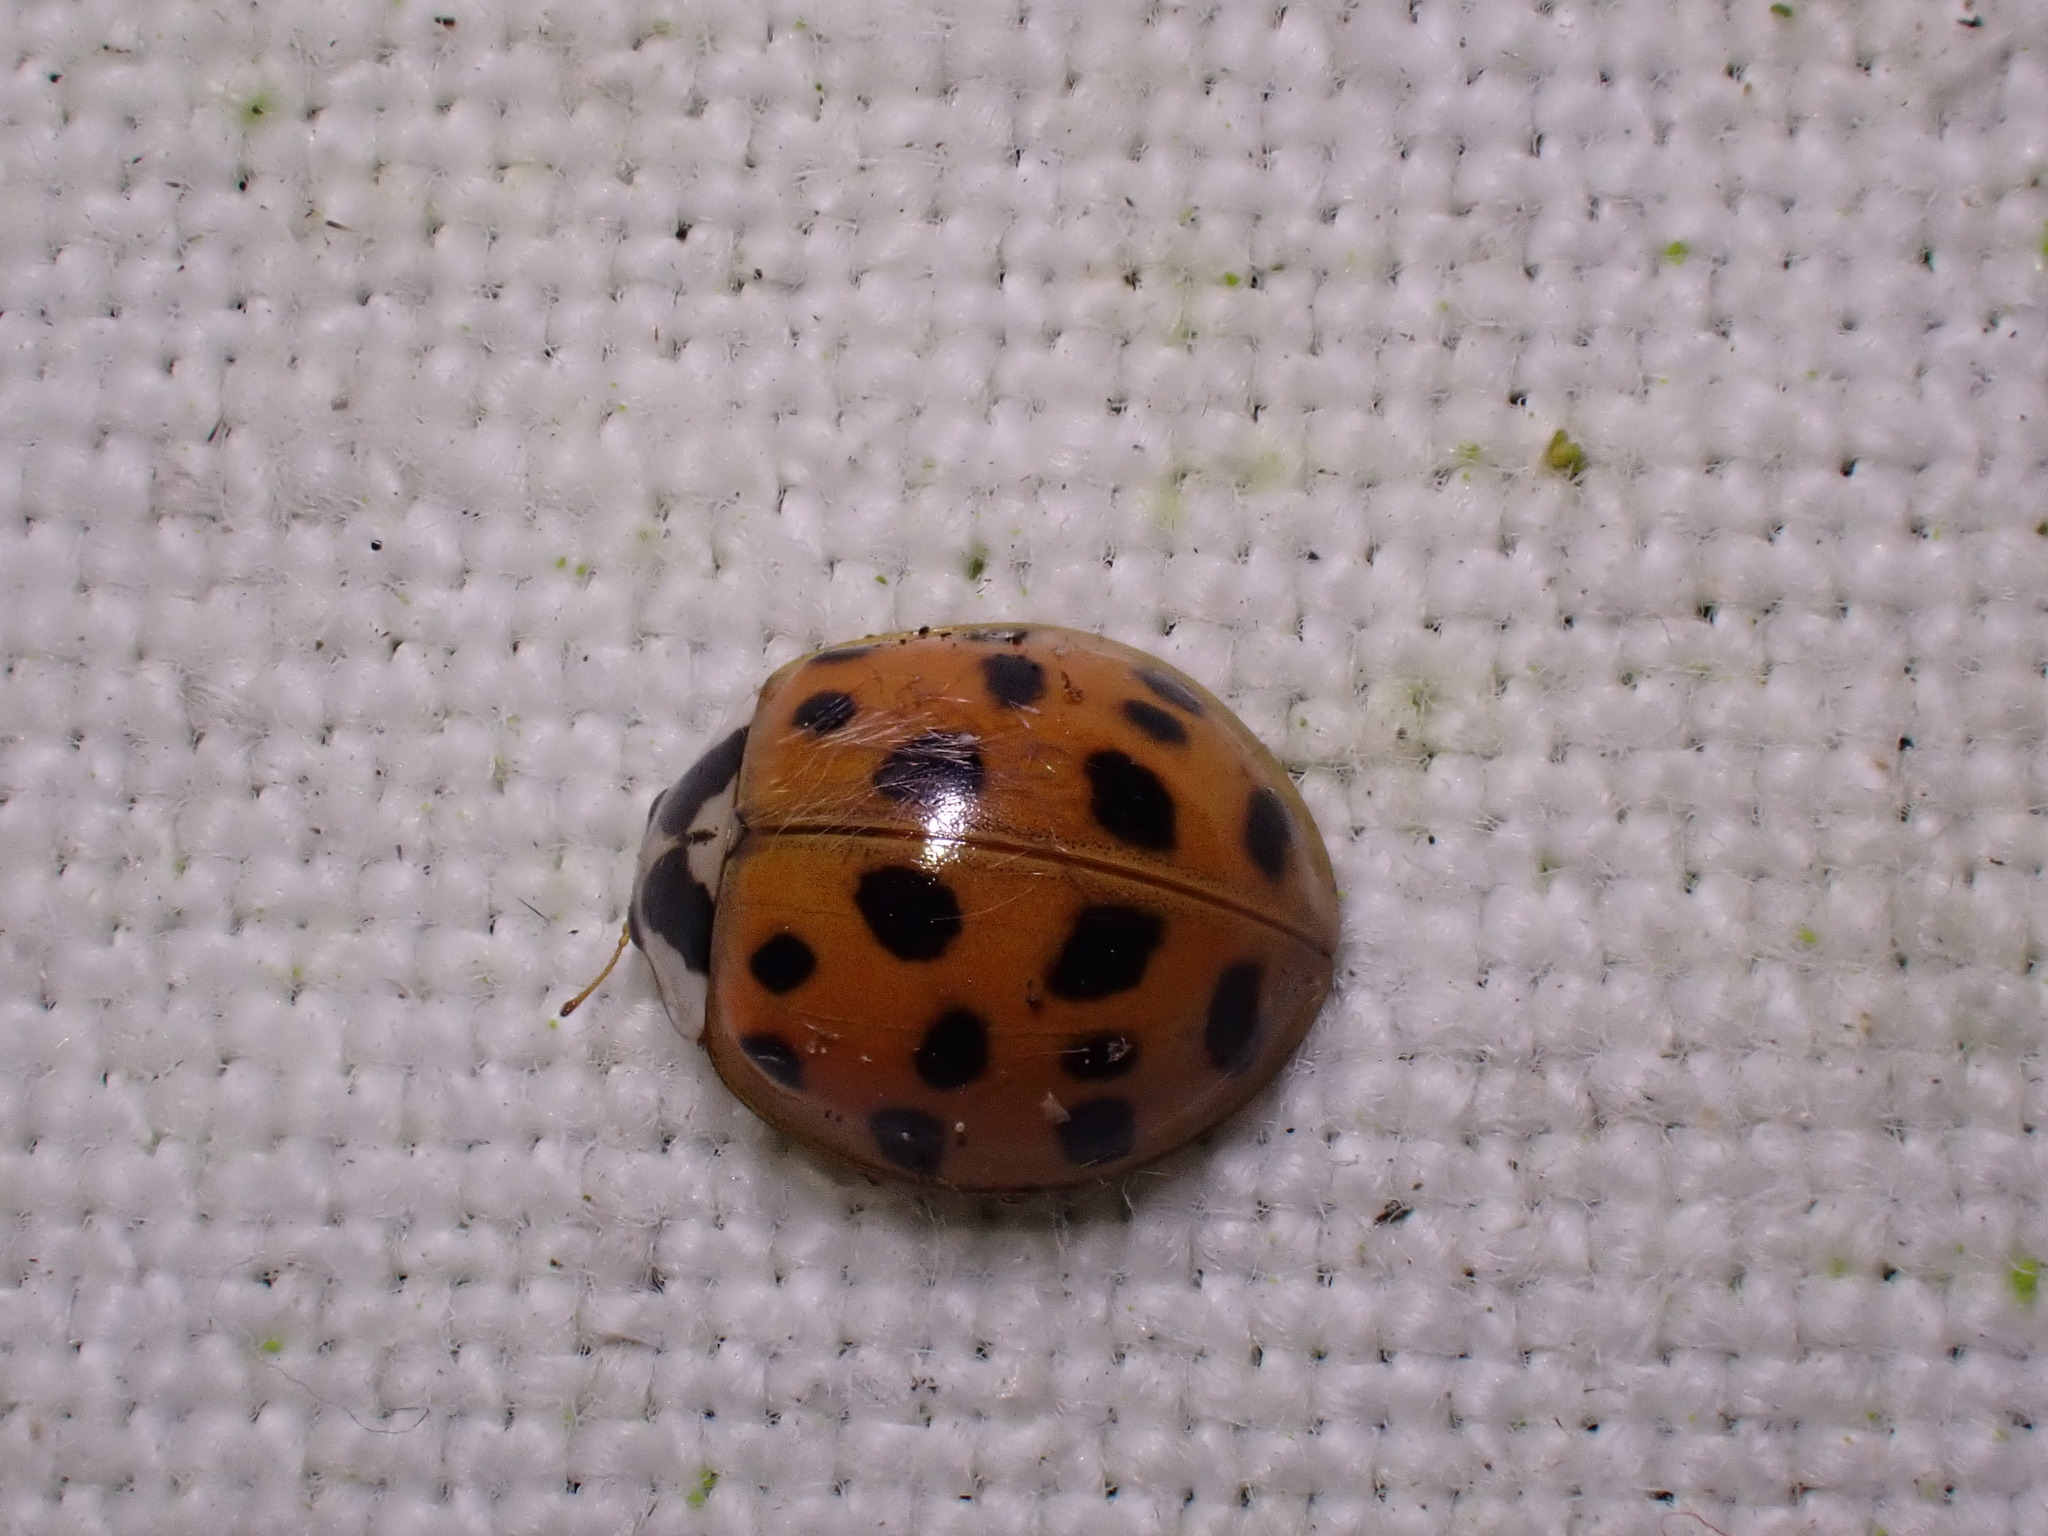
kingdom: Animalia
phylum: Arthropoda
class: Insecta
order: Coleoptera
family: Coccinellidae
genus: Harmonia
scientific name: Harmonia axyridis
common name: Harlequin ladybird
